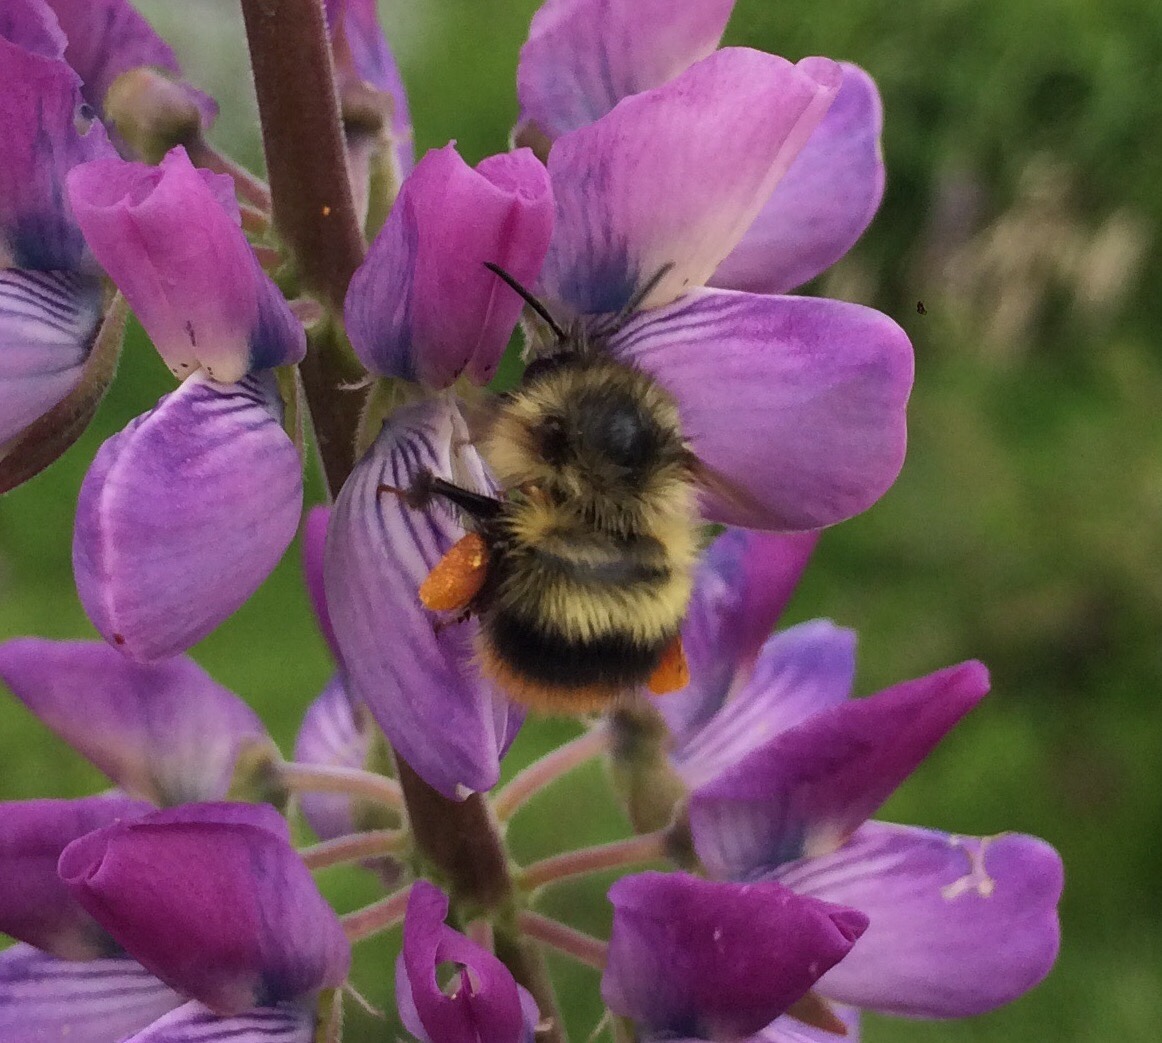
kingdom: Animalia
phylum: Arthropoda
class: Insecta
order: Hymenoptera
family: Apidae
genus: Bombus
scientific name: Bombus mixtus
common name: Fuzzy-horned bumble bee
